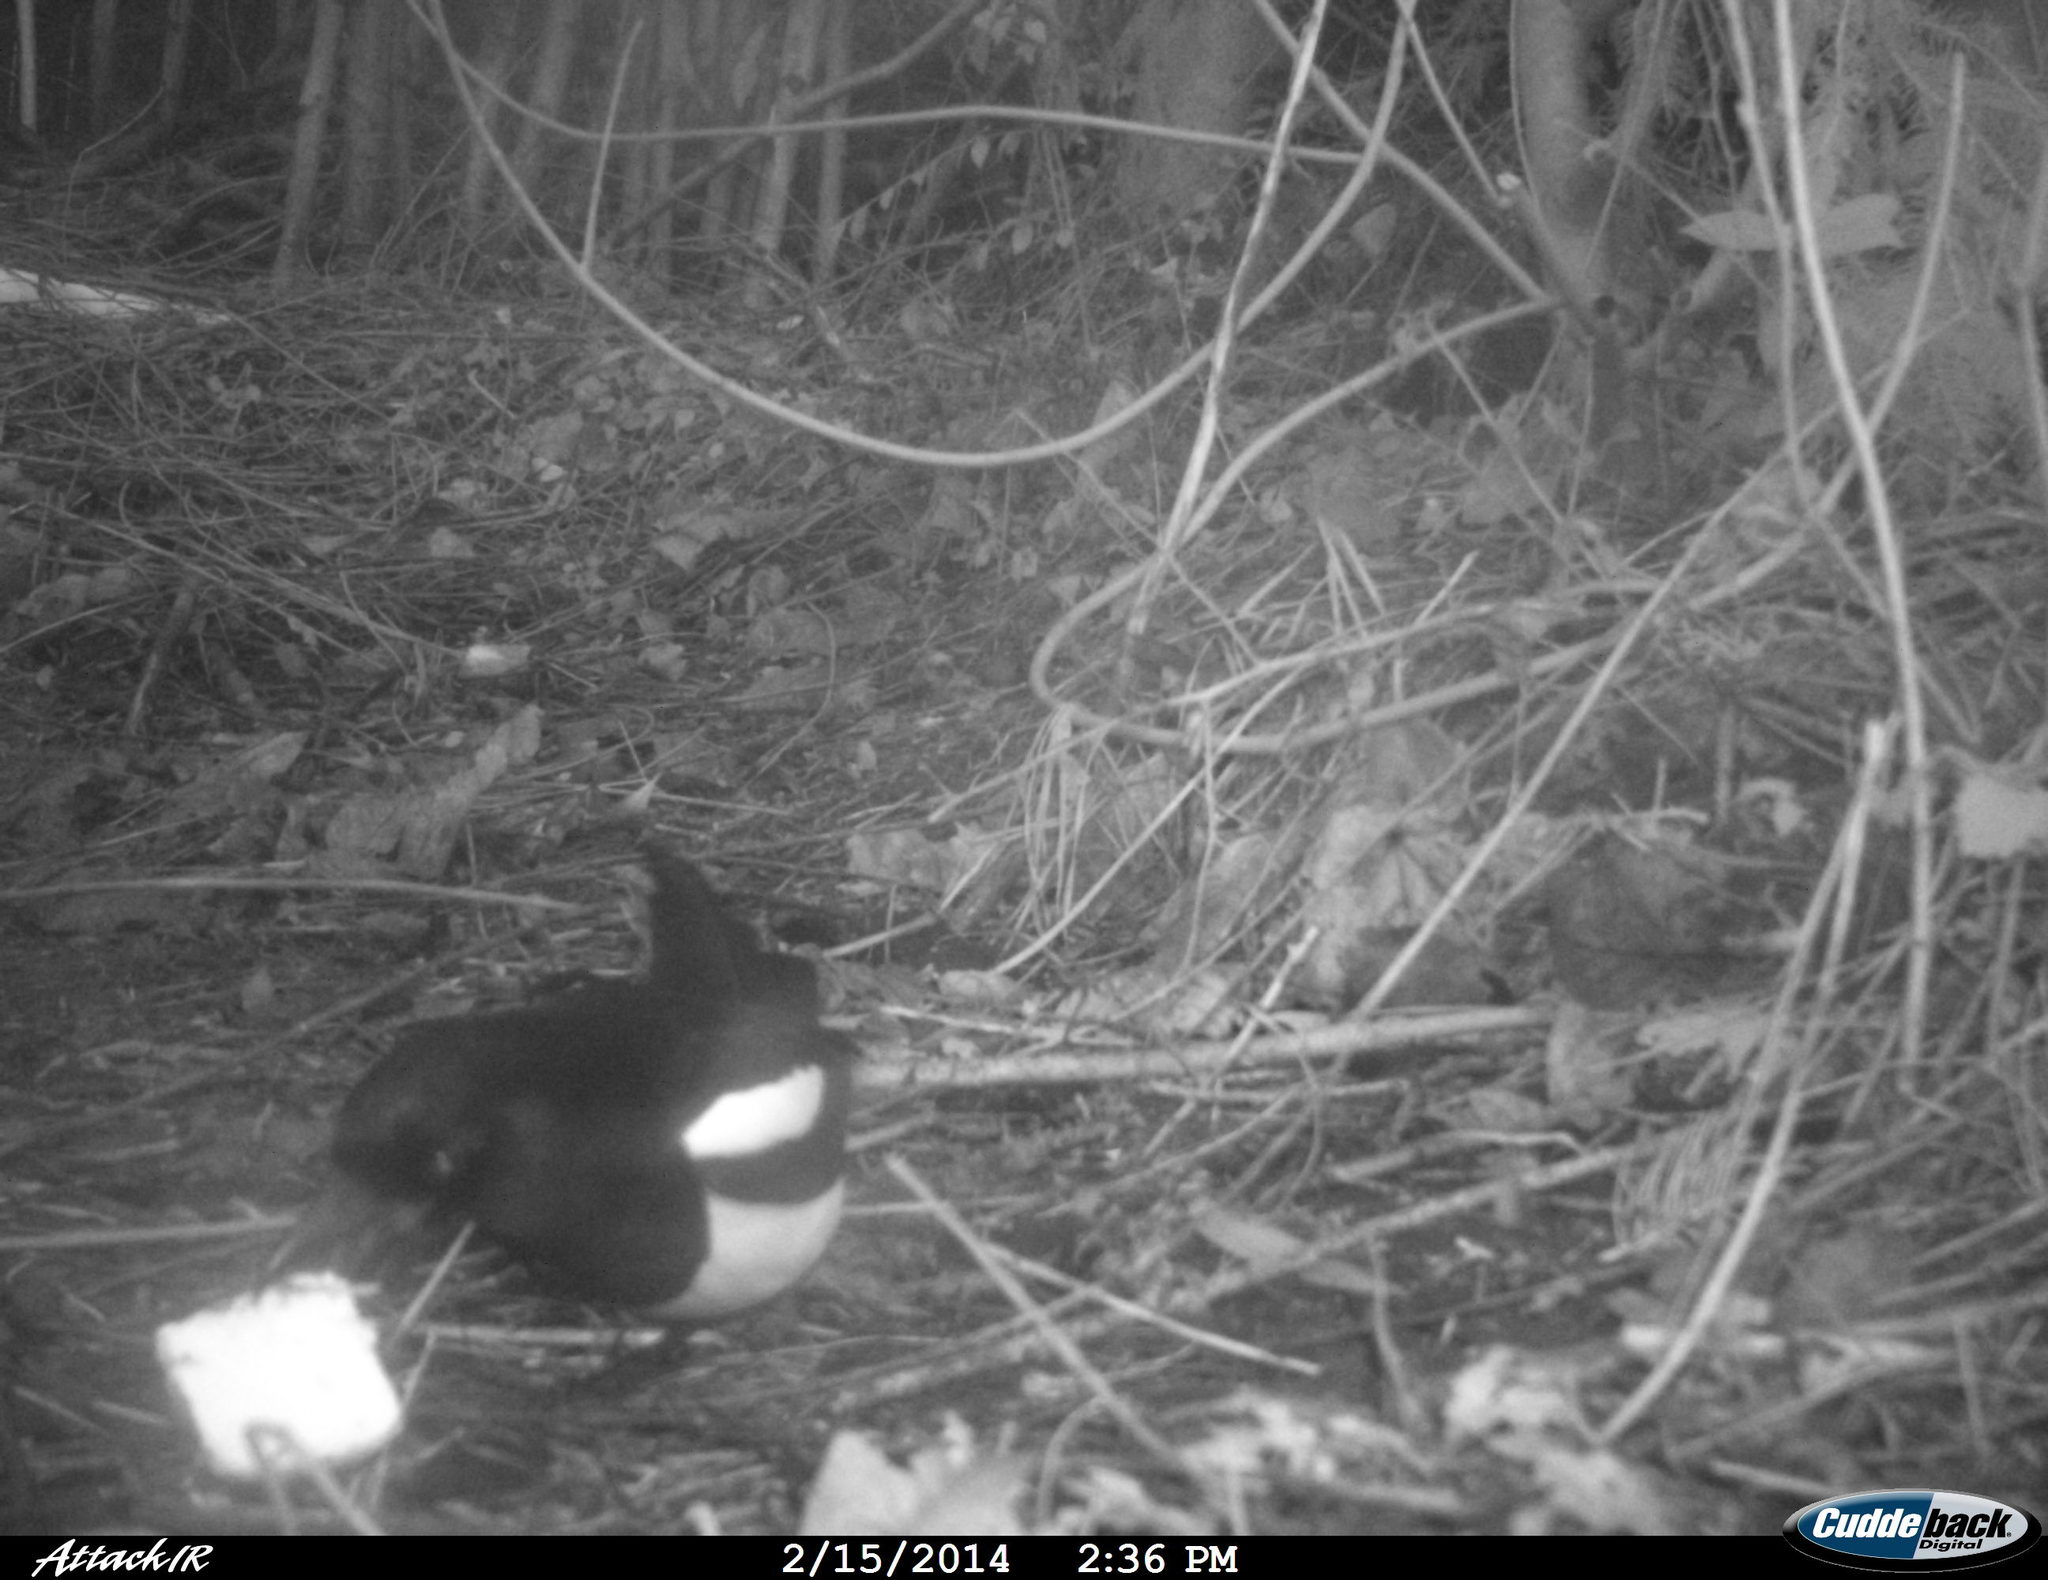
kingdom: Animalia
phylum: Chordata
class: Aves
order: Passeriformes
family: Corvidae
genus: Pica
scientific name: Pica pica
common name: Eurasian magpie
